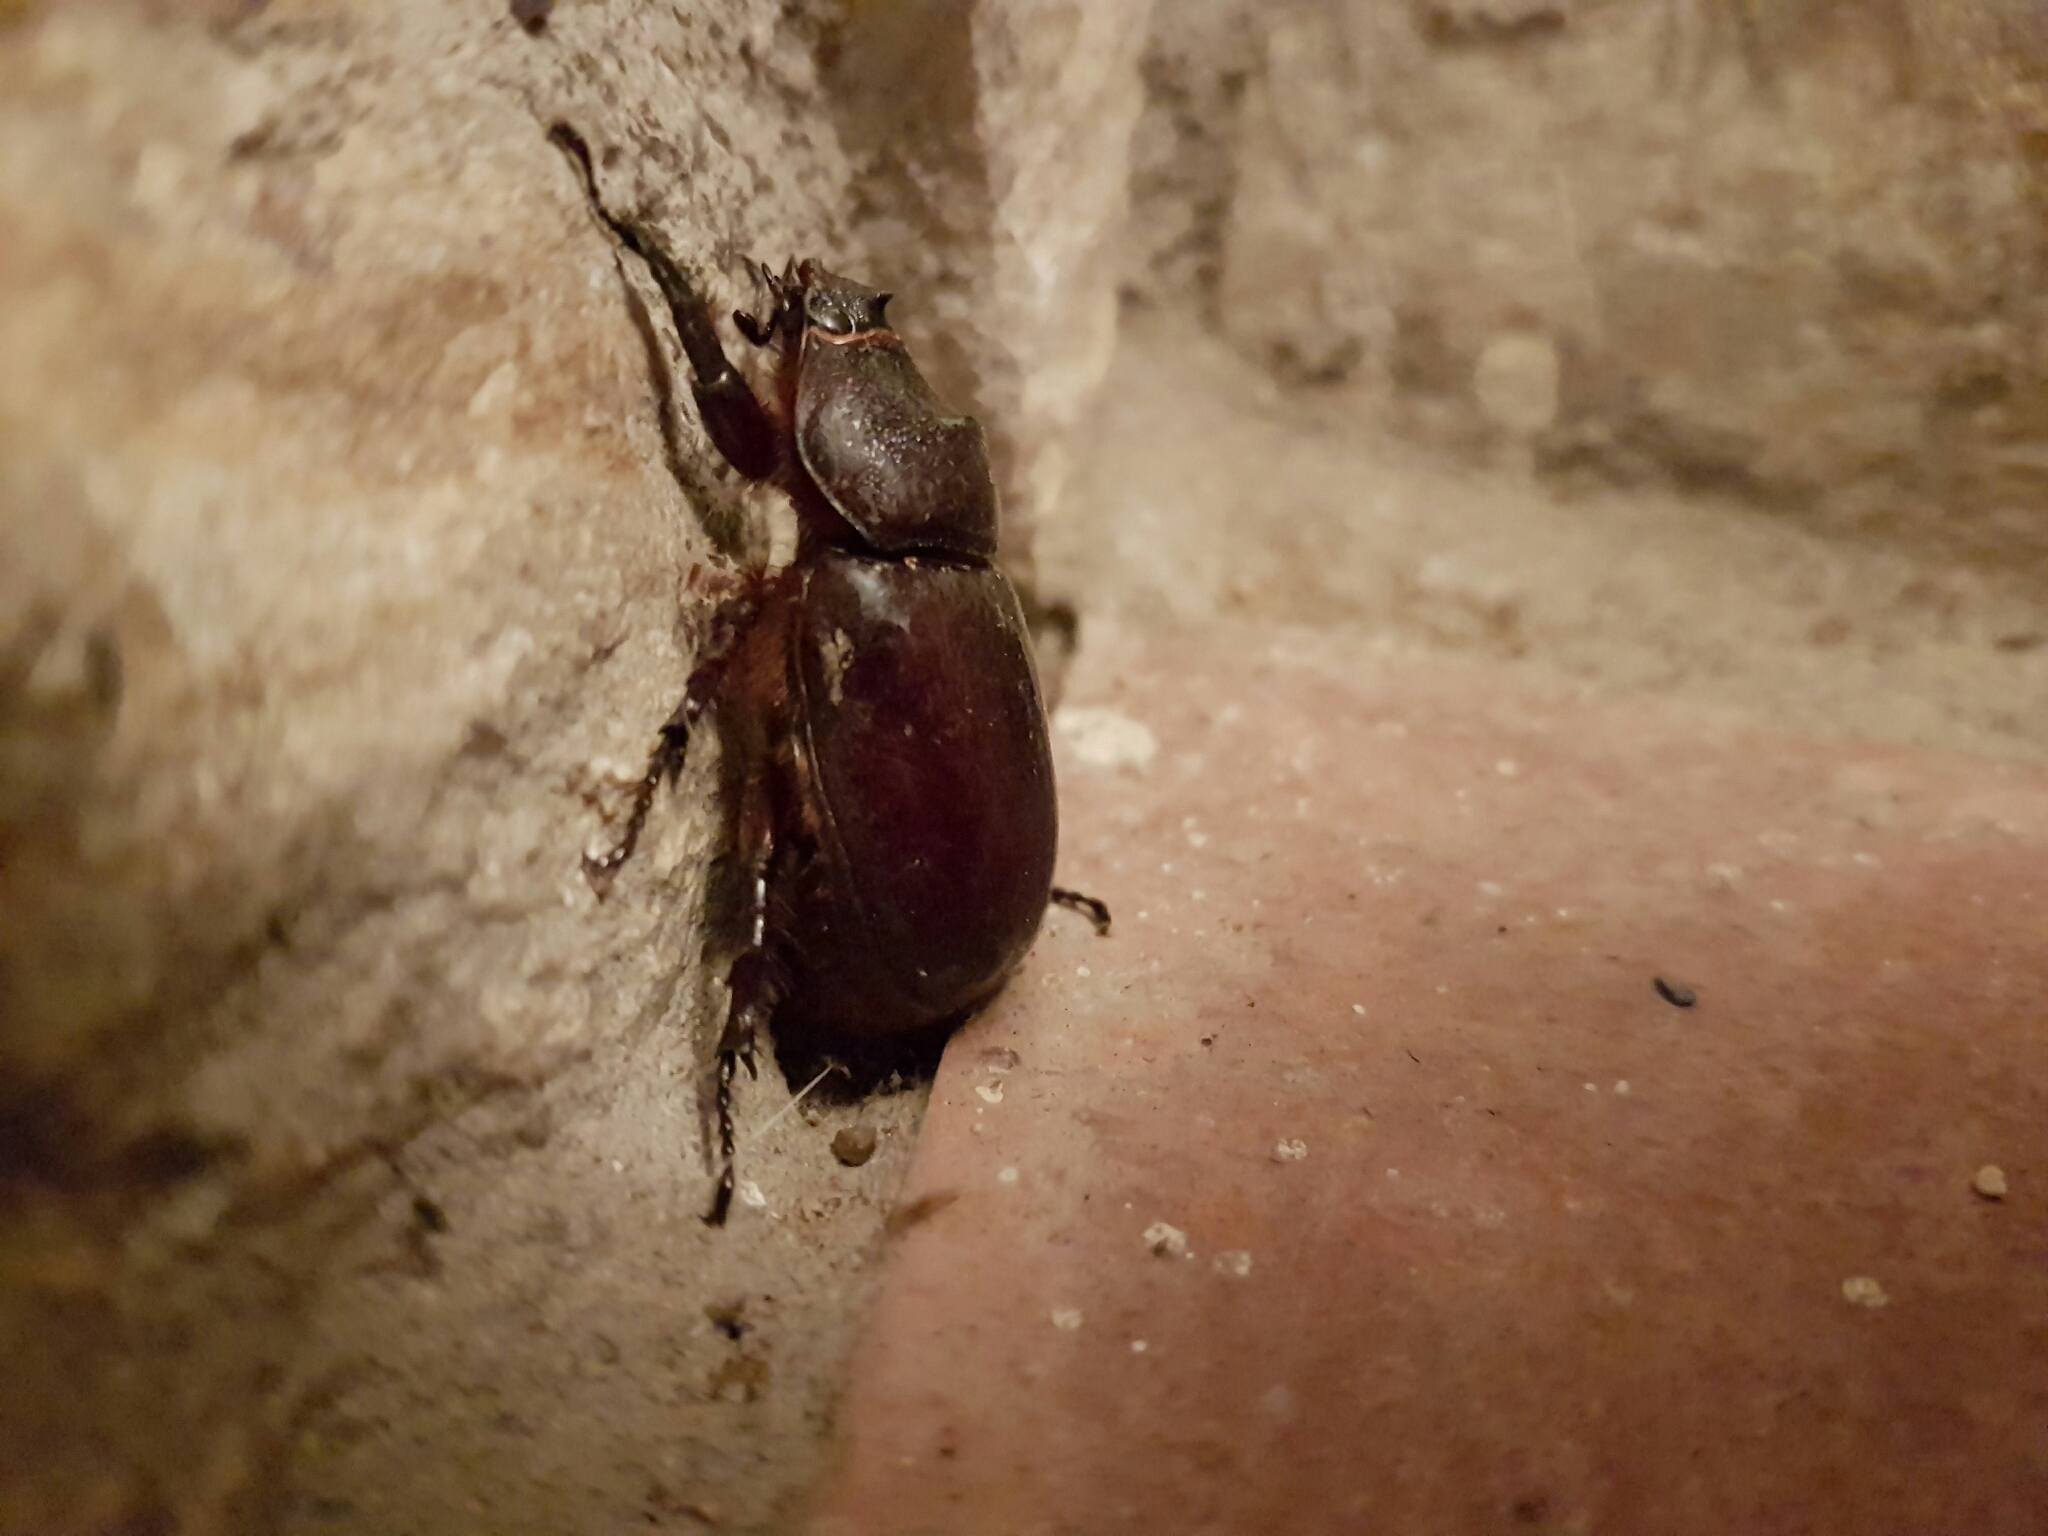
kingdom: Animalia
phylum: Arthropoda
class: Insecta
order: Coleoptera
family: Scarabaeidae
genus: Oryctes
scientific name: Oryctes nasicornis
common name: European rhinoceros beetle
